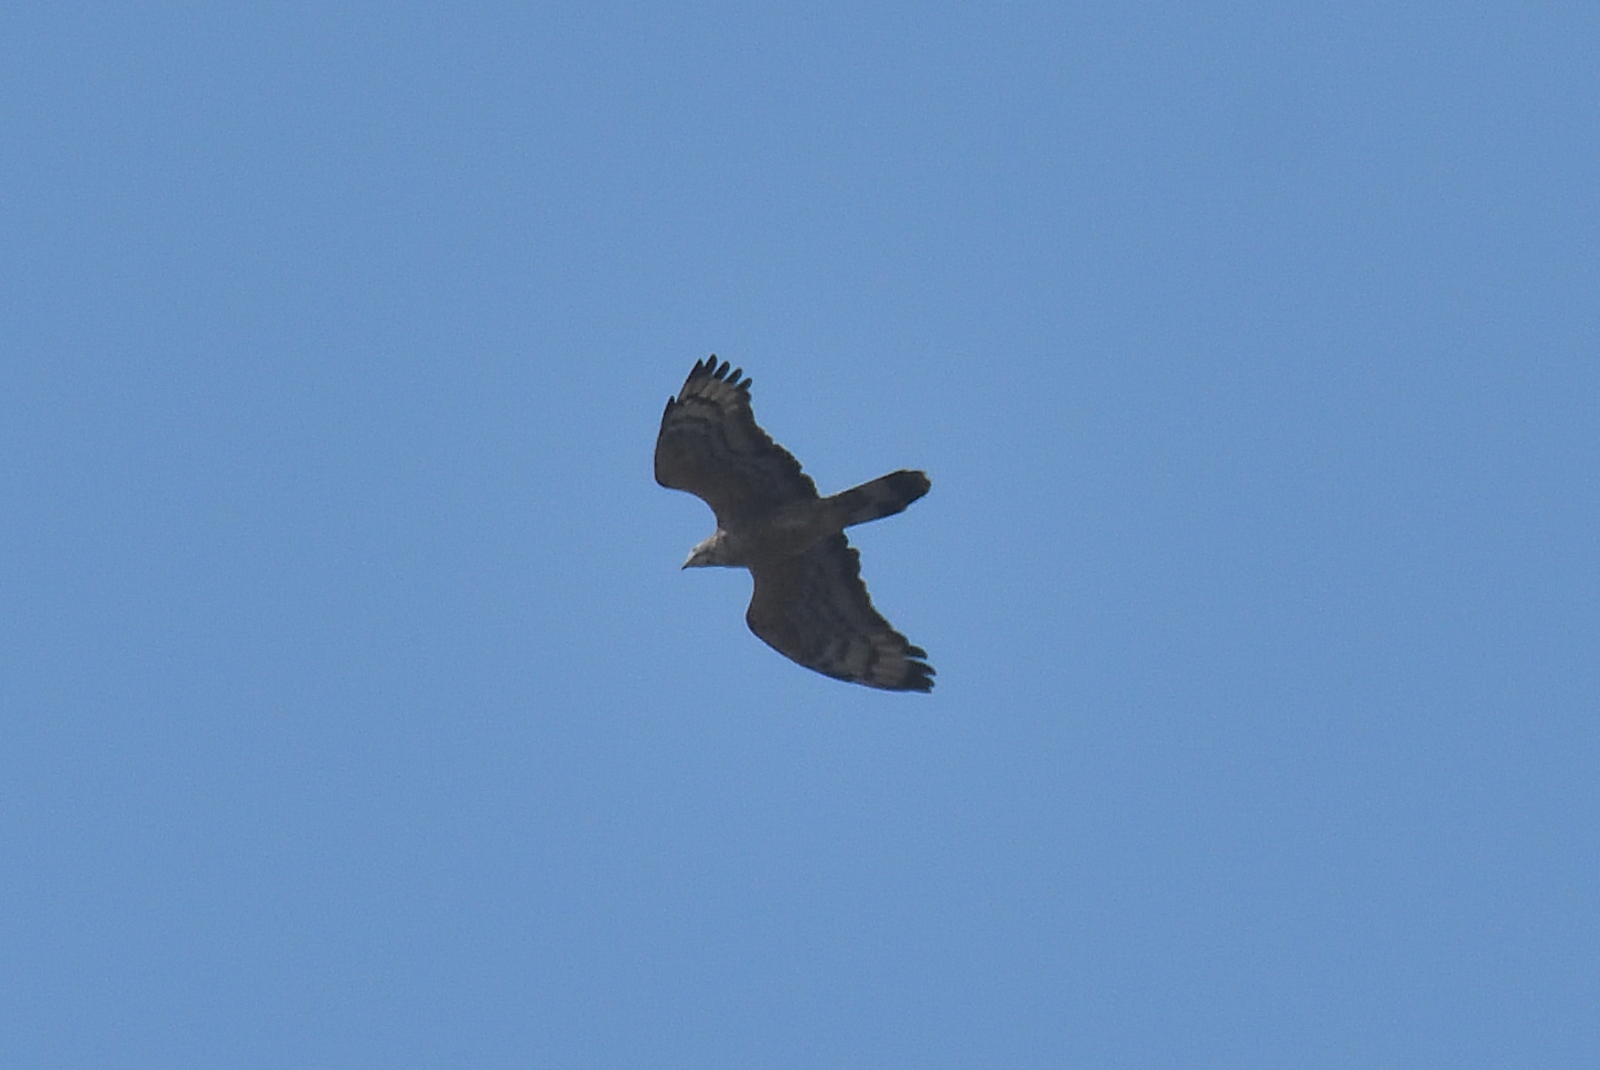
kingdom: Animalia
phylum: Chordata
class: Aves
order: Accipitriformes
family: Accipitridae
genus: Pernis
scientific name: Pernis ptilorhynchus
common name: Crested honey buzzard
